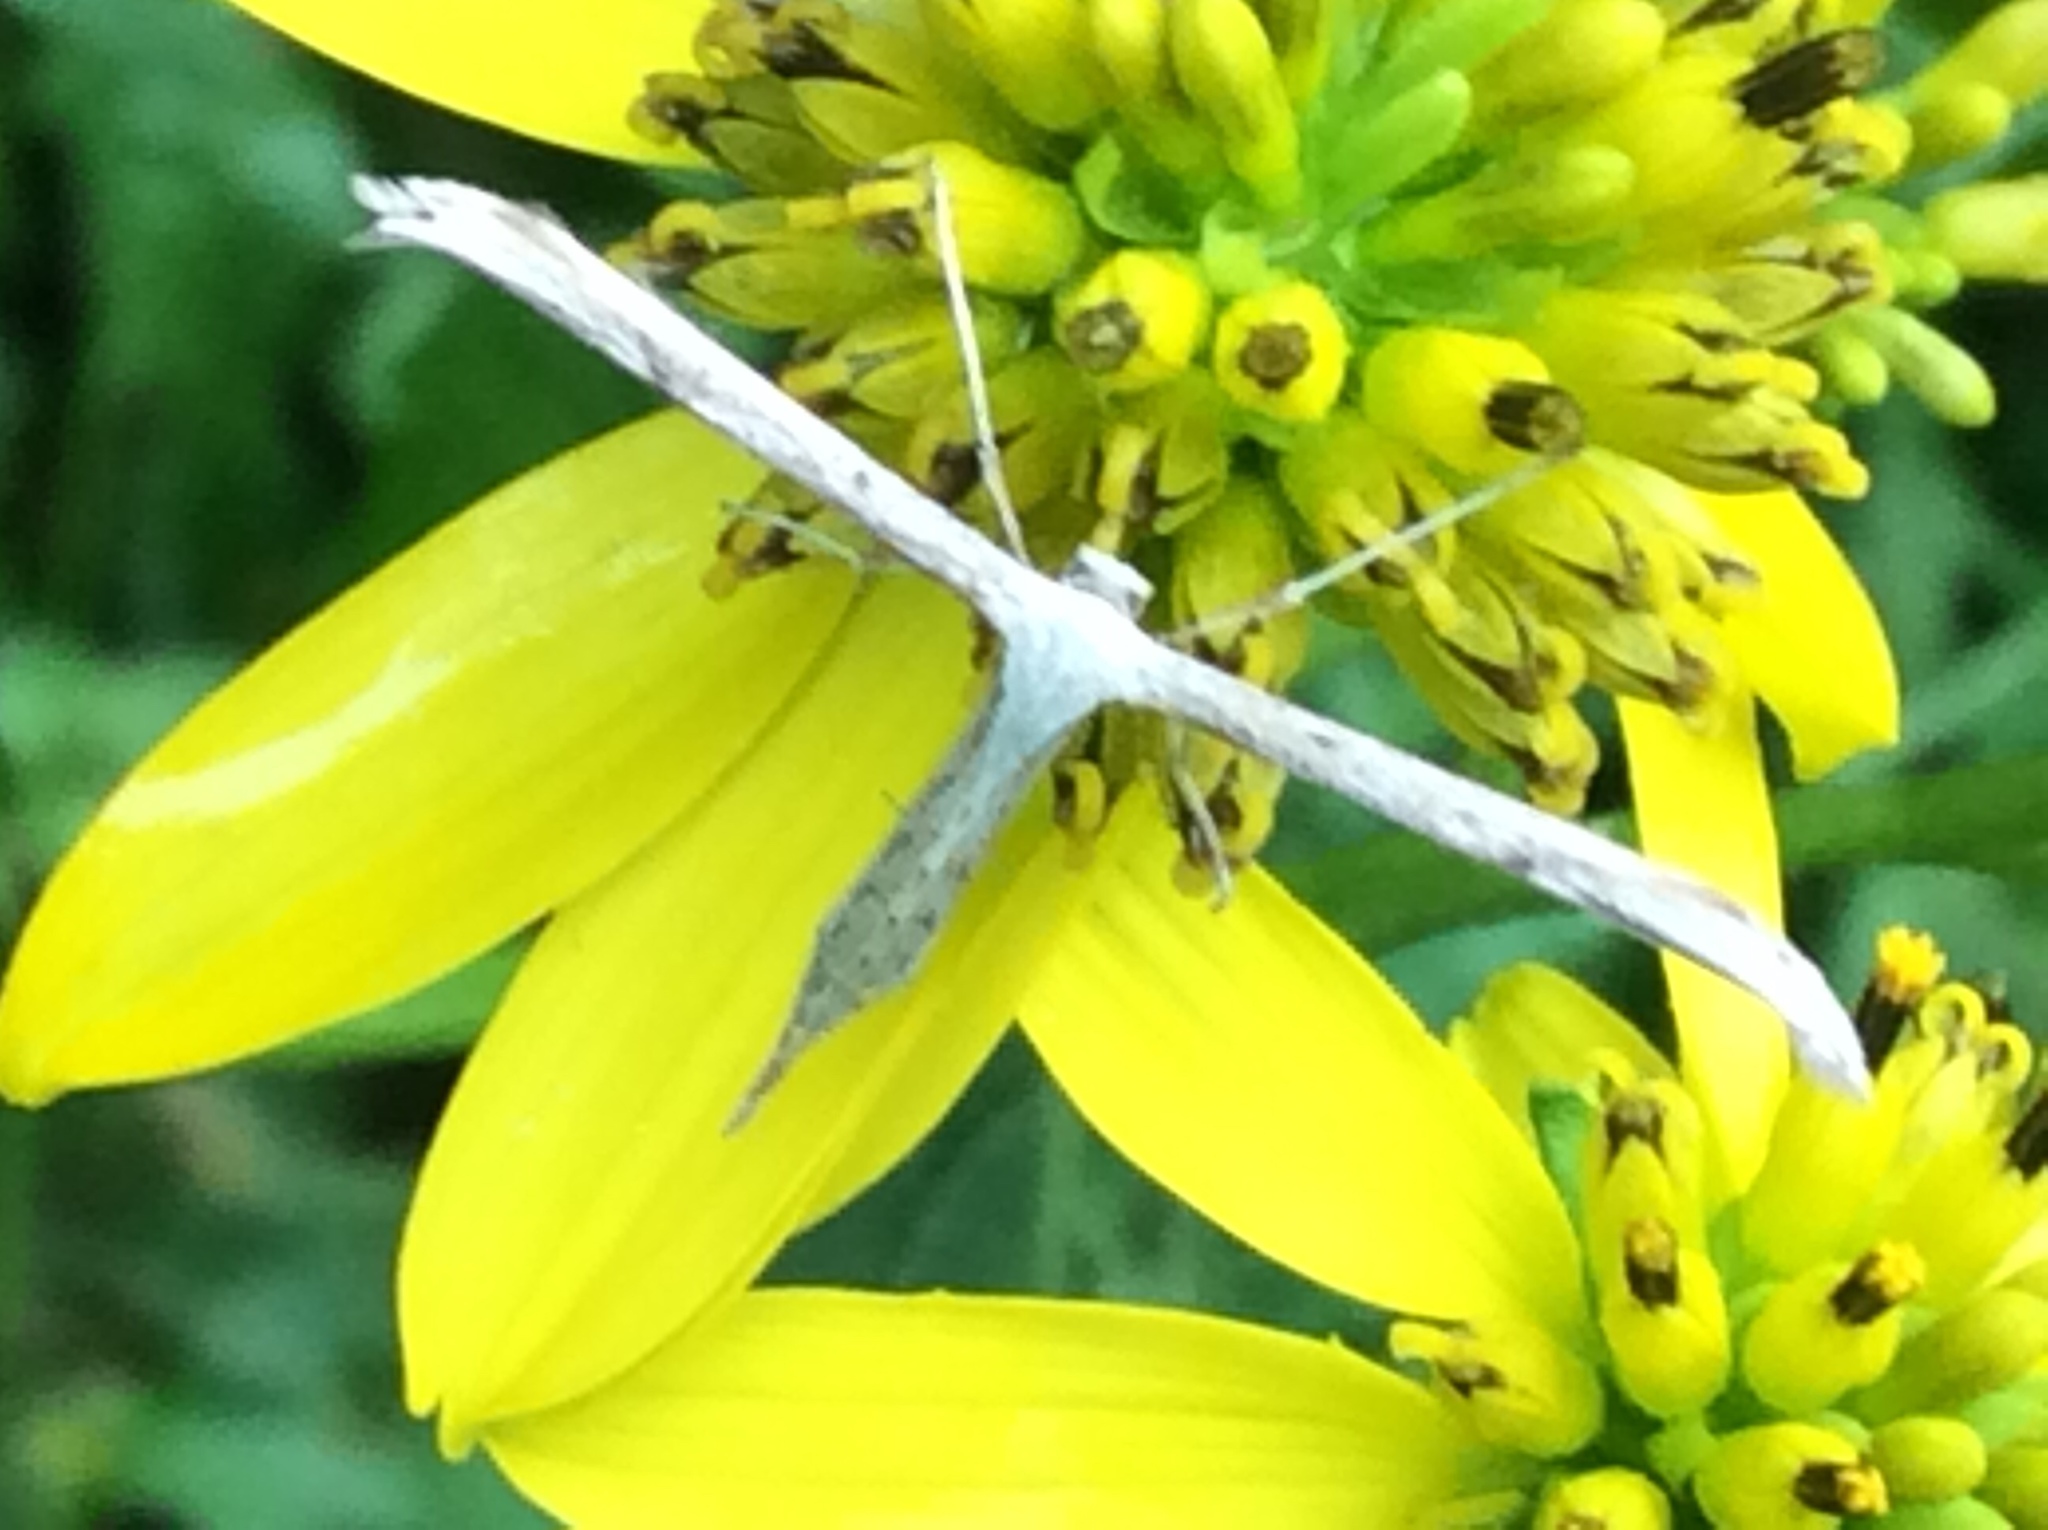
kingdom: Animalia
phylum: Arthropoda
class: Insecta
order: Lepidoptera
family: Pterophoridae
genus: Emmelina
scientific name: Emmelina monodactyla
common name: Common plume
